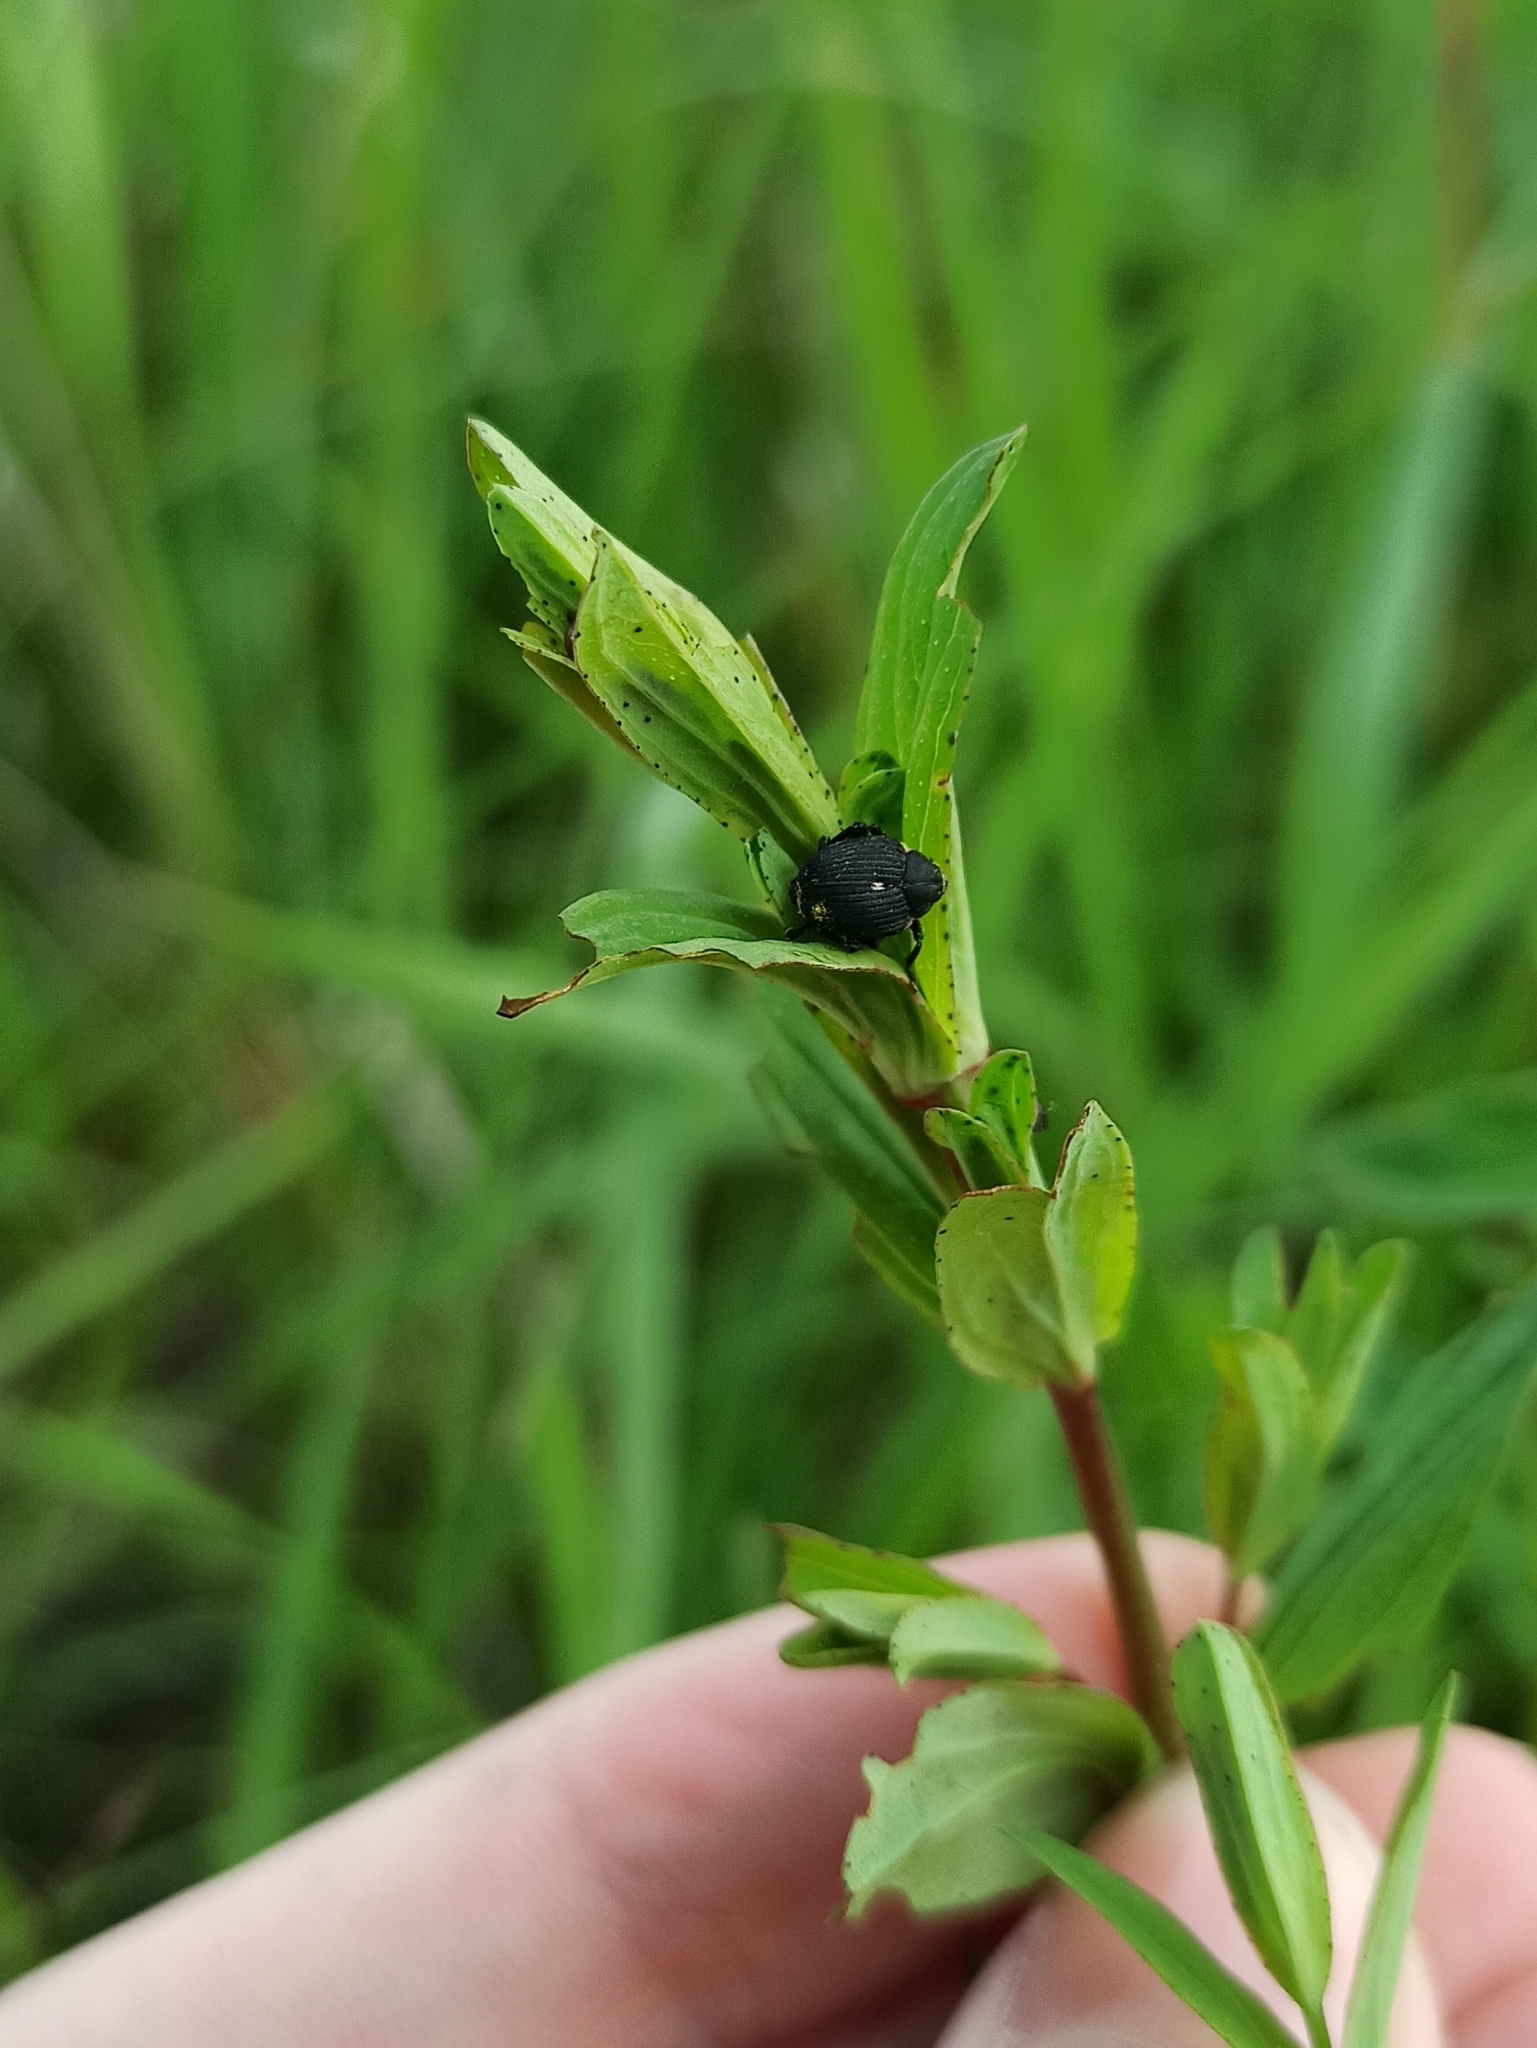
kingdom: Animalia
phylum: Arthropoda
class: Insecta
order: Coleoptera
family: Curculionidae
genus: Mononychus
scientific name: Mononychus punctumalbum
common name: Iris weevil
